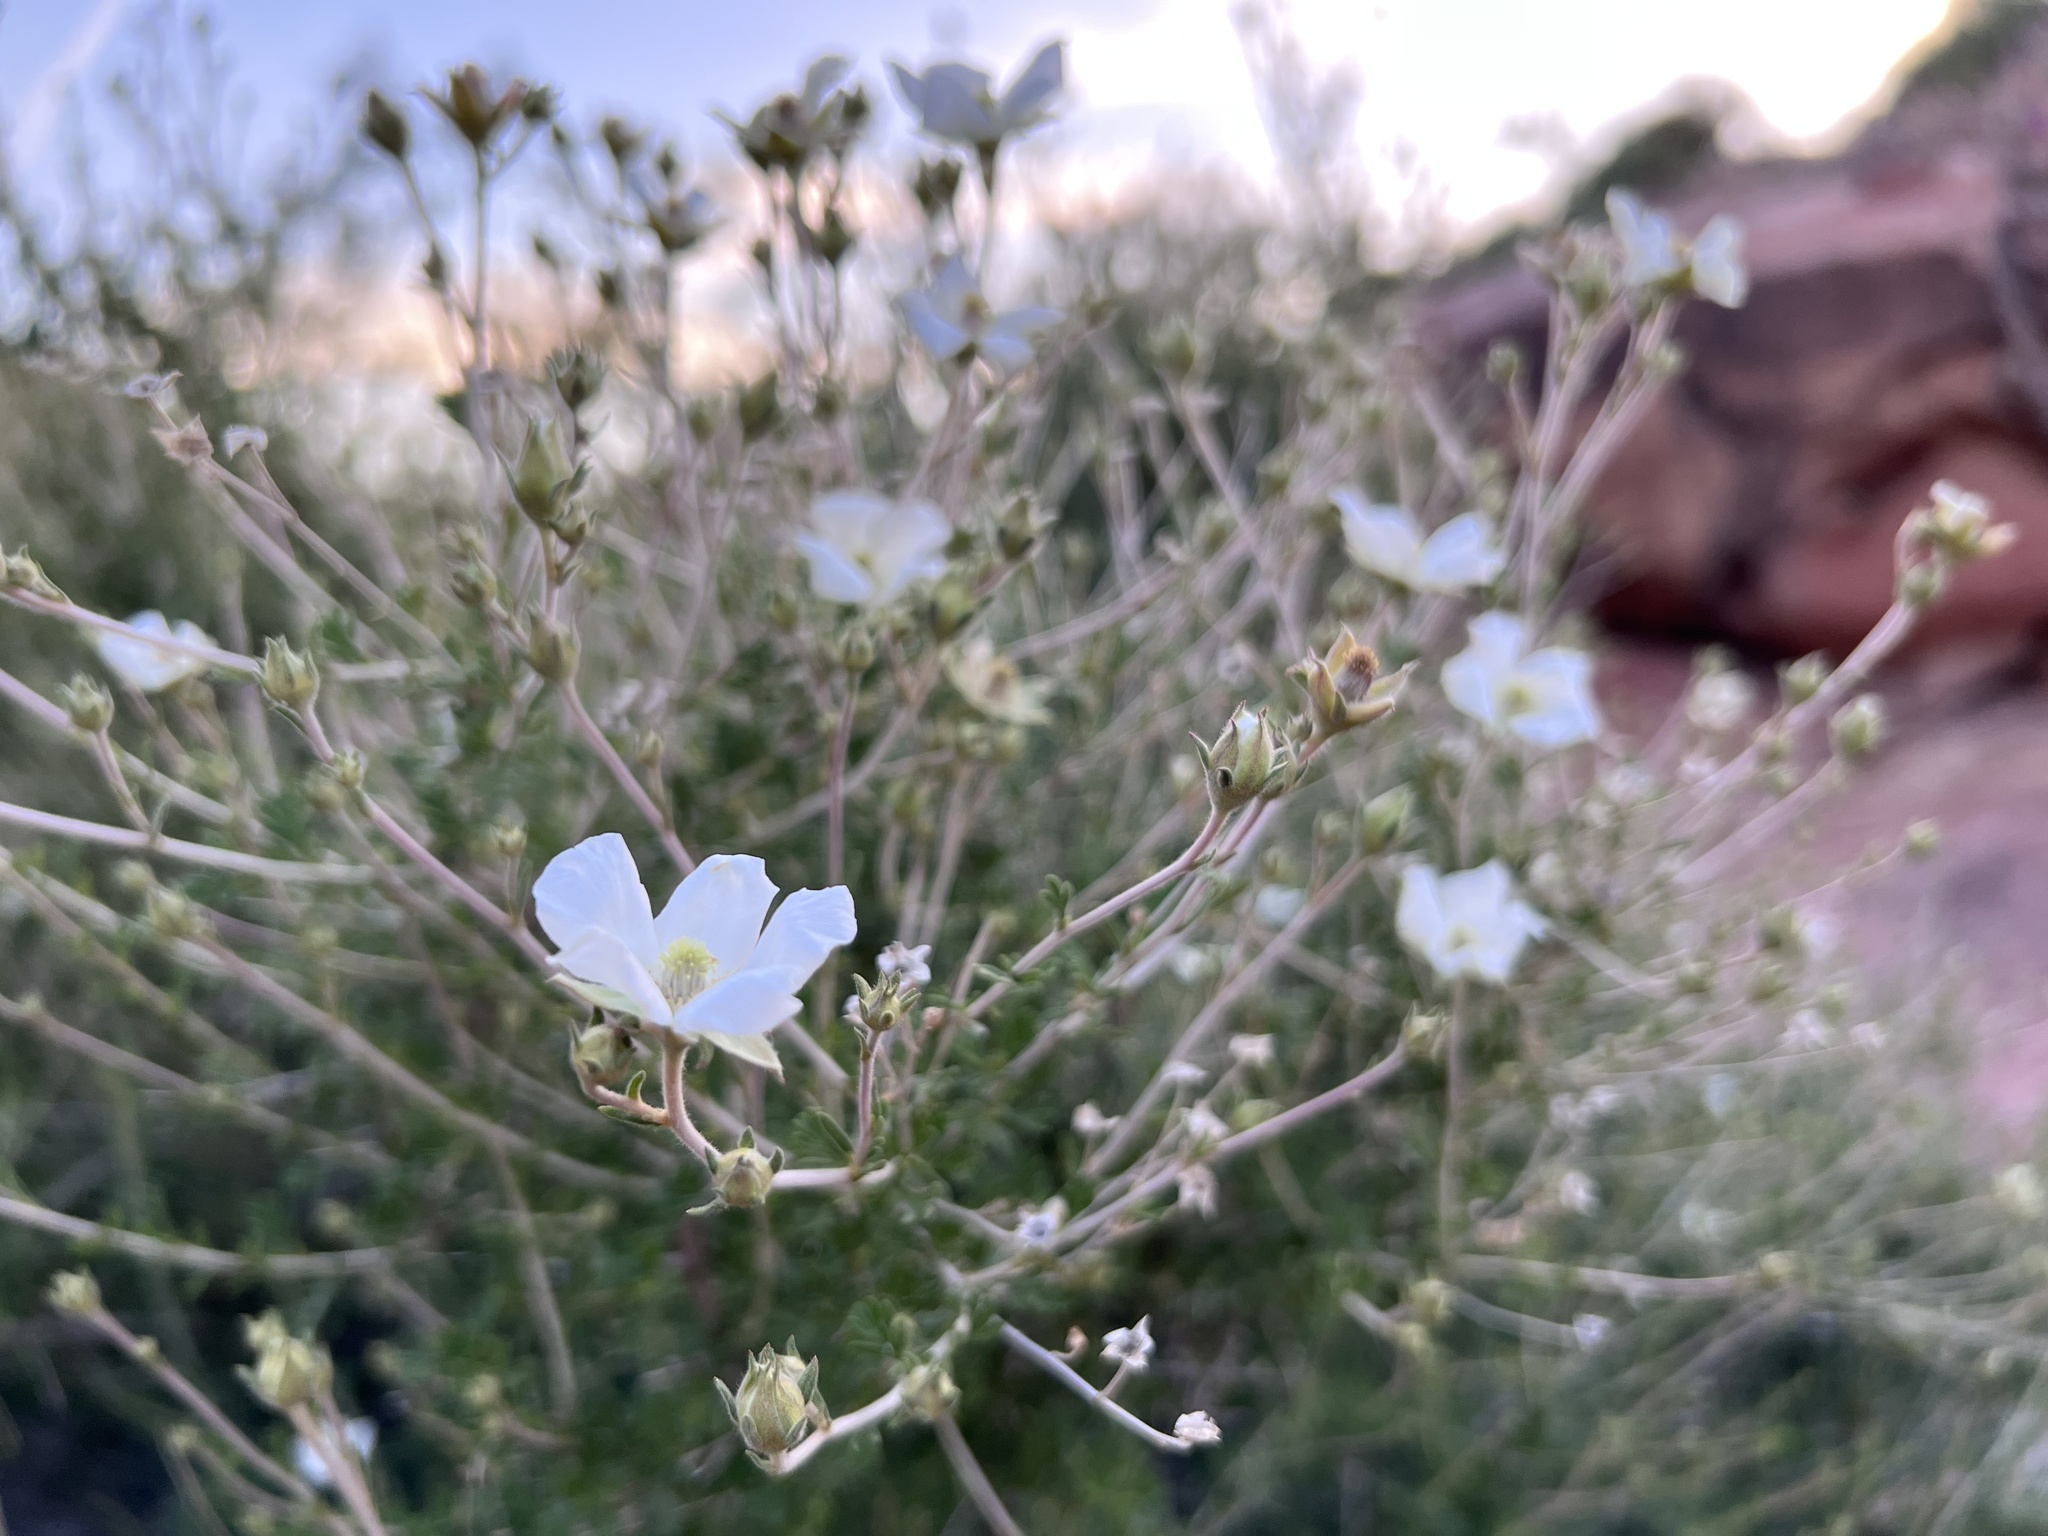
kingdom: Plantae
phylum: Tracheophyta
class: Magnoliopsida
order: Rosales
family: Rosaceae
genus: Fallugia
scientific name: Fallugia paradoxa
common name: Apache-plume
